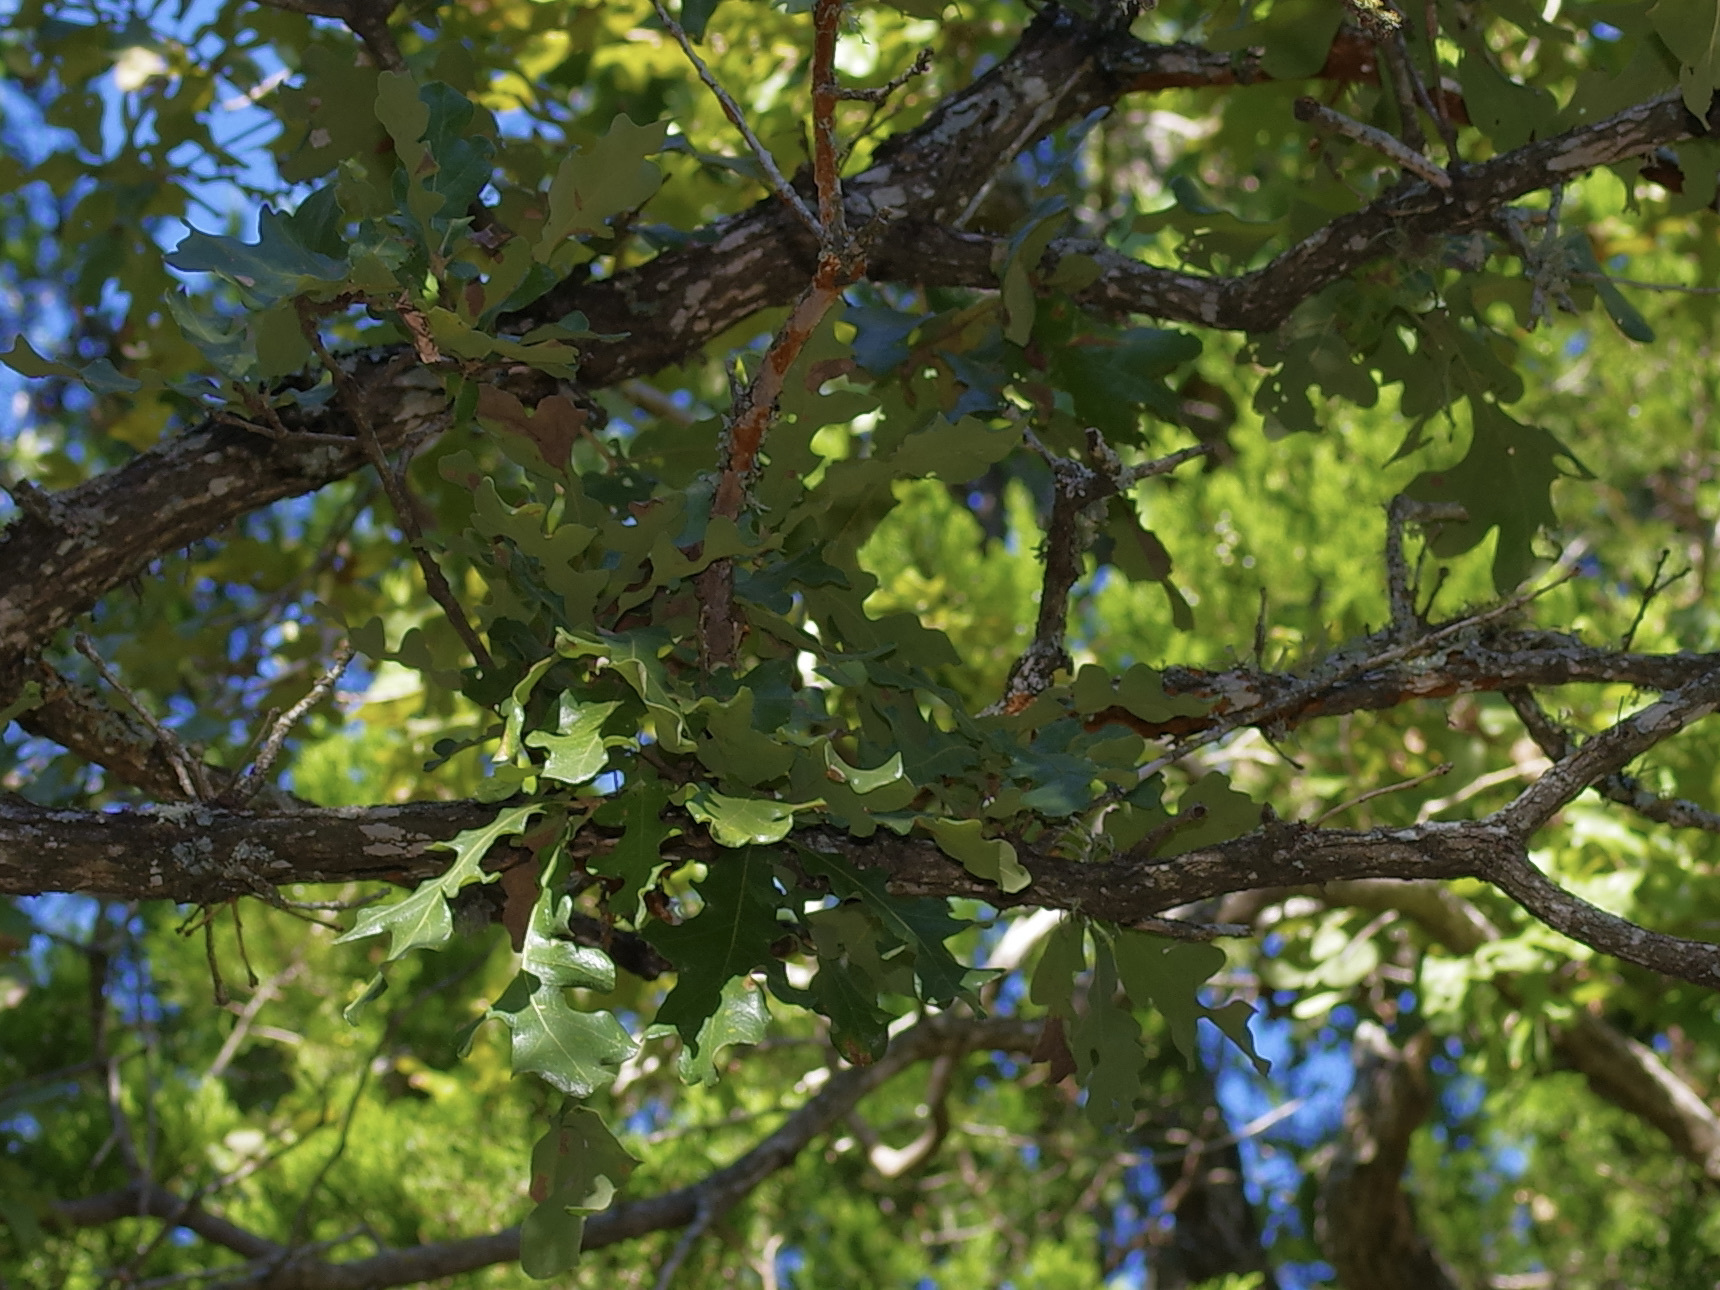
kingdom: Plantae
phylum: Tracheophyta
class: Magnoliopsida
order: Fagales
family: Fagaceae
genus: Quercus
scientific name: Quercus stellata
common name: Post oak
